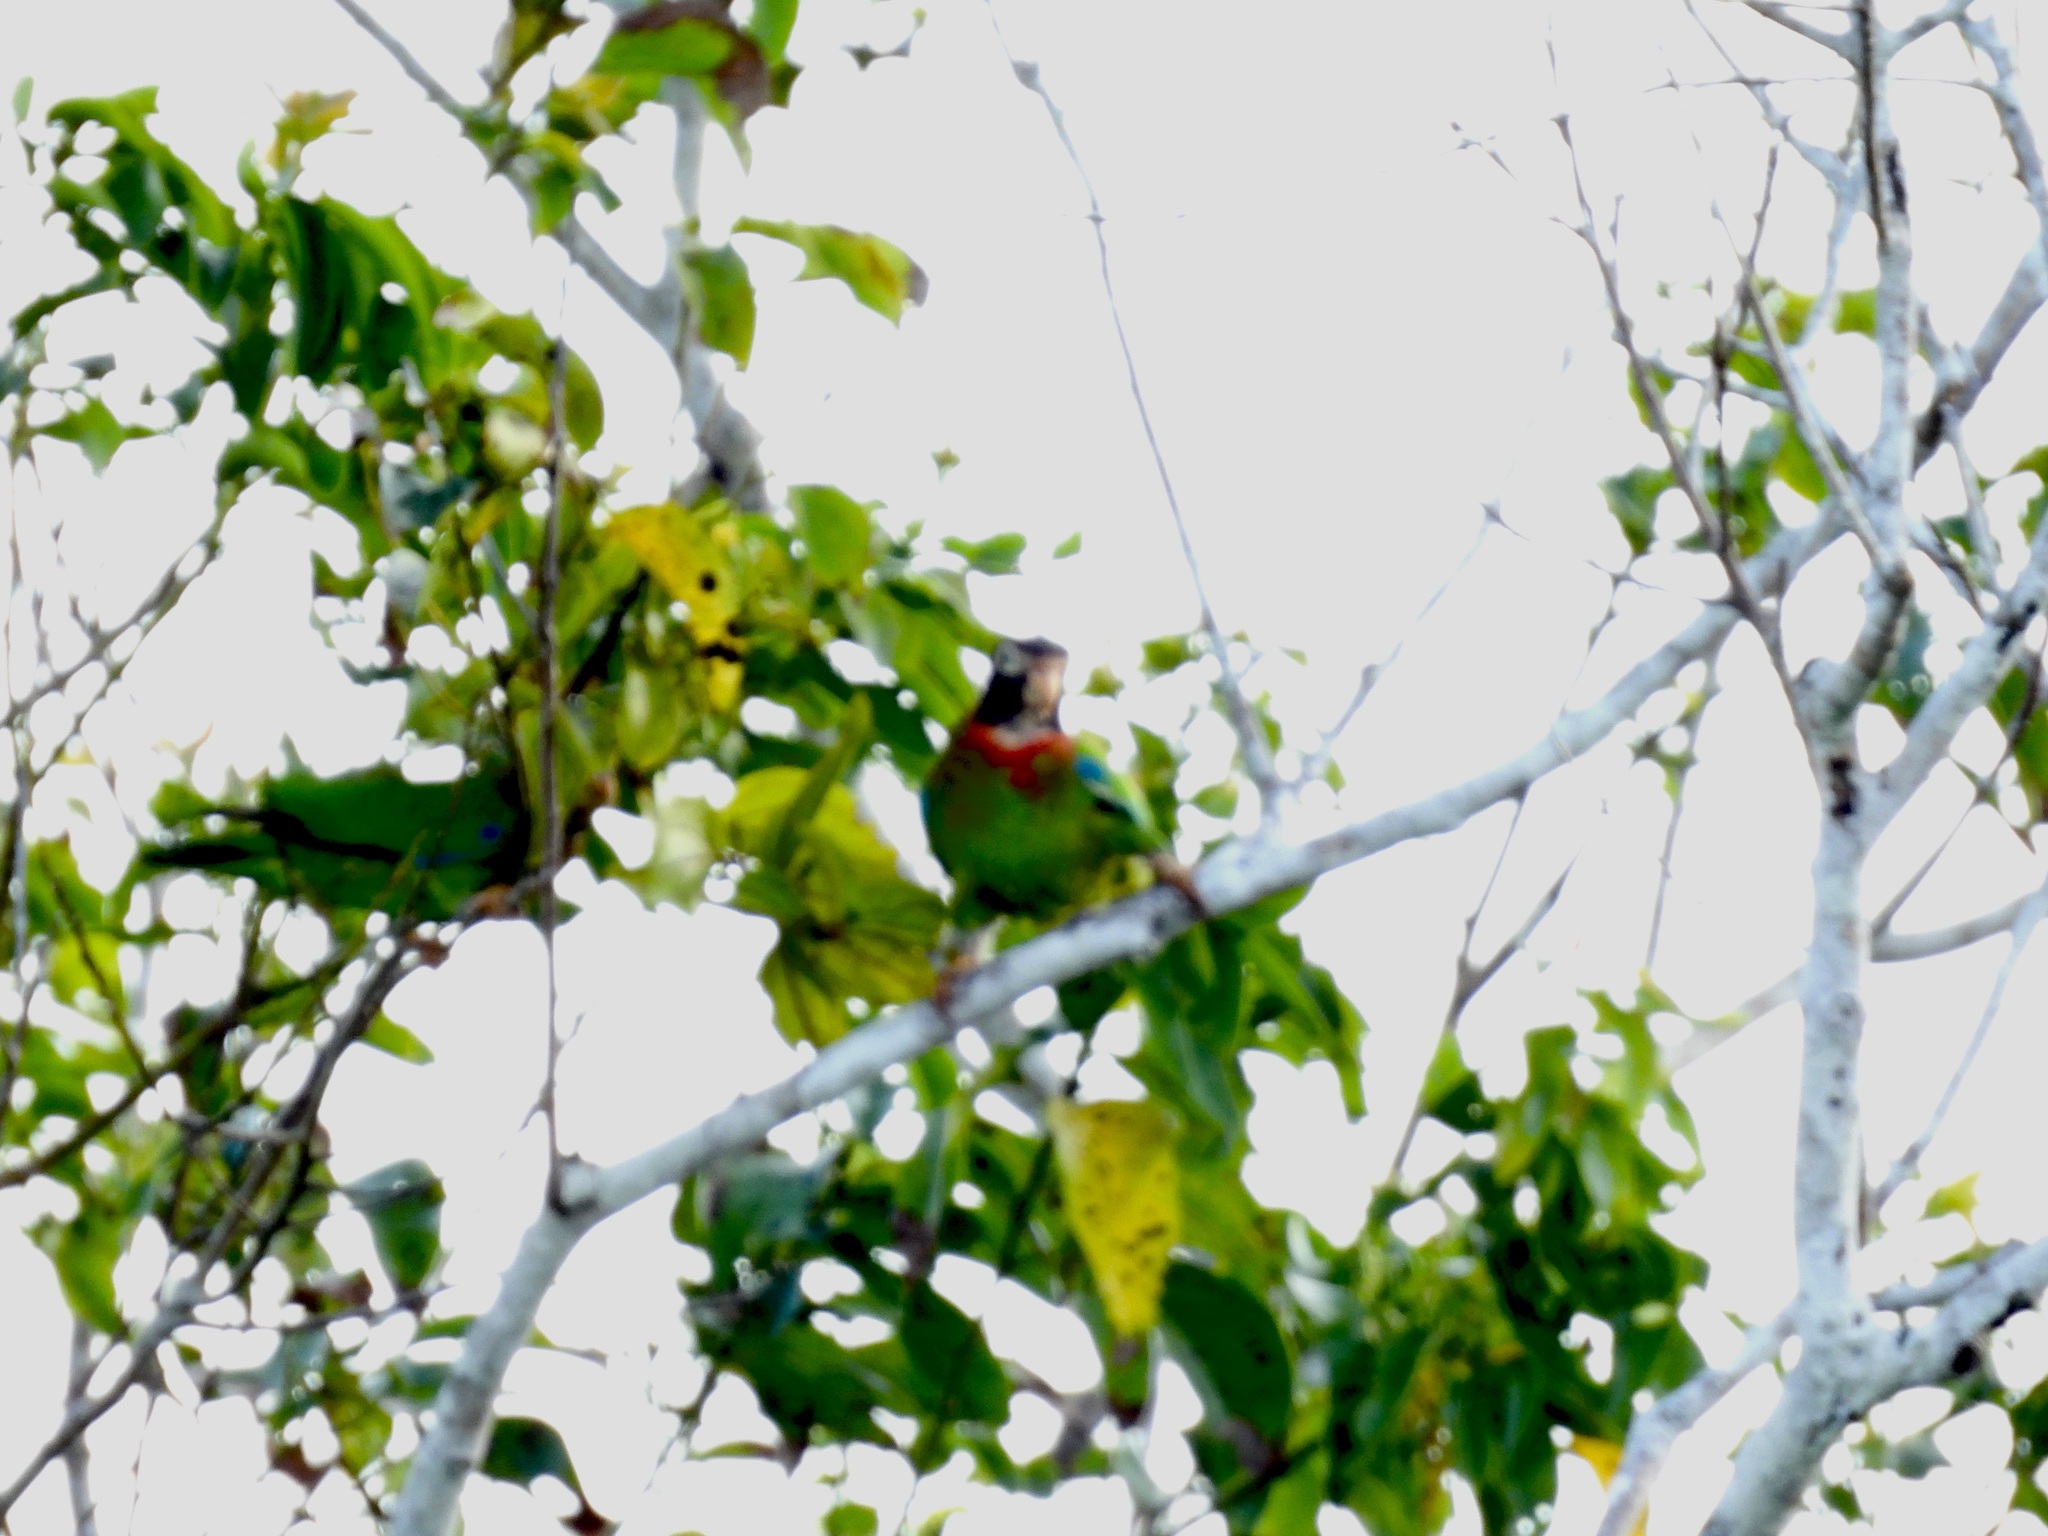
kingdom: Animalia
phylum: Chordata
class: Aves
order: Psittaciformes
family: Psittacidae
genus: Pionopsitta
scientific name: Pionopsitta haematotis
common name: Brown-hooded parrot
